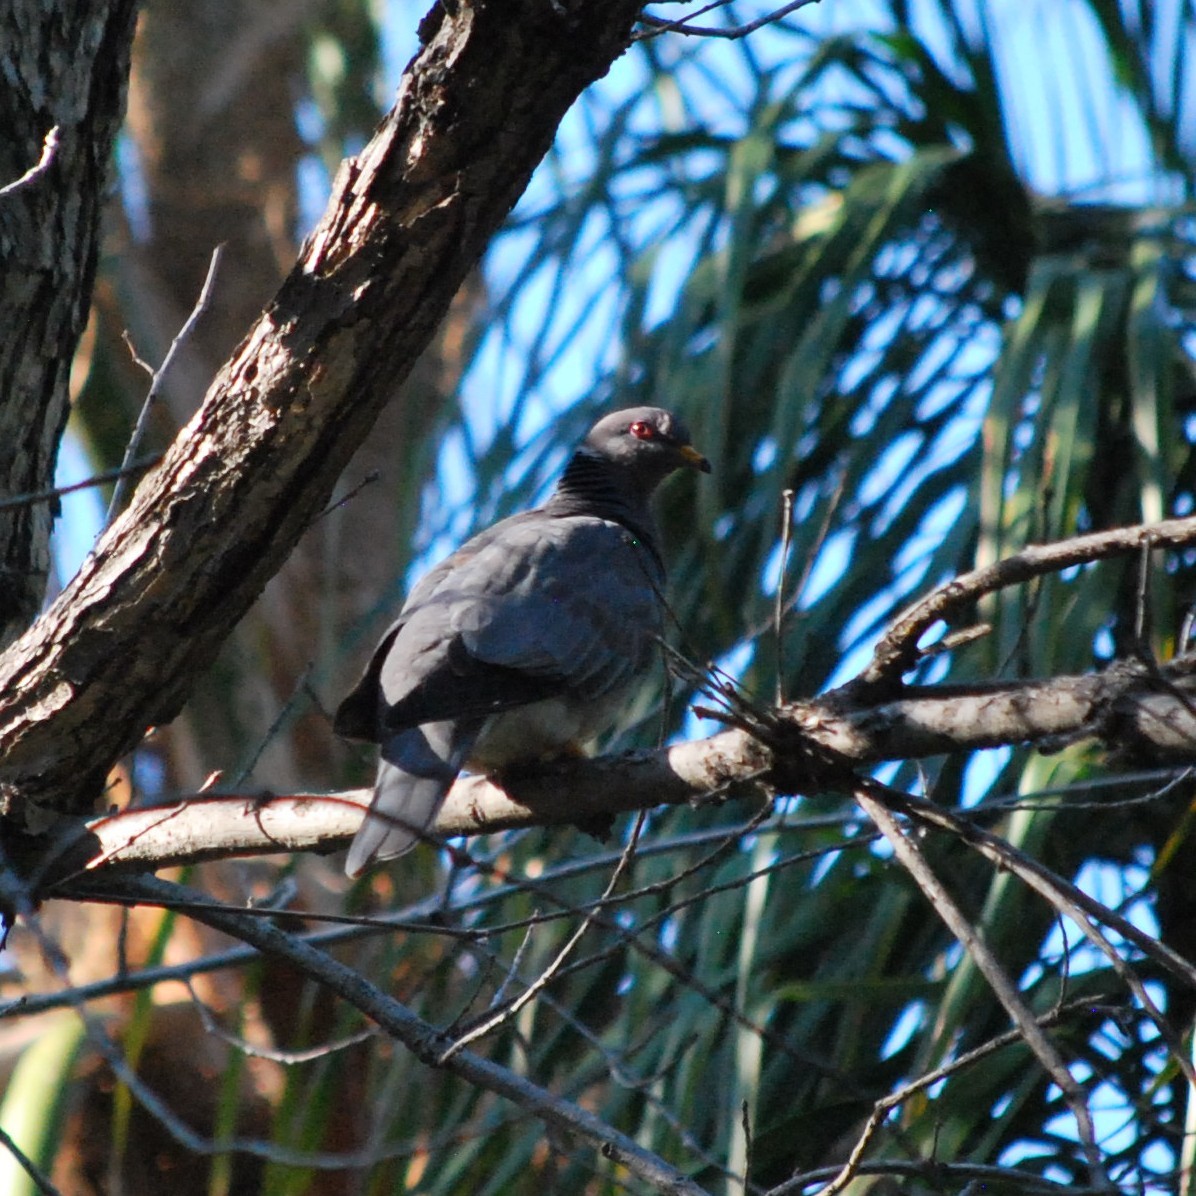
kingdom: Animalia
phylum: Chordata
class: Aves
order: Columbiformes
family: Columbidae
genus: Patagioenas
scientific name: Patagioenas fasciata
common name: Band-tailed pigeon
